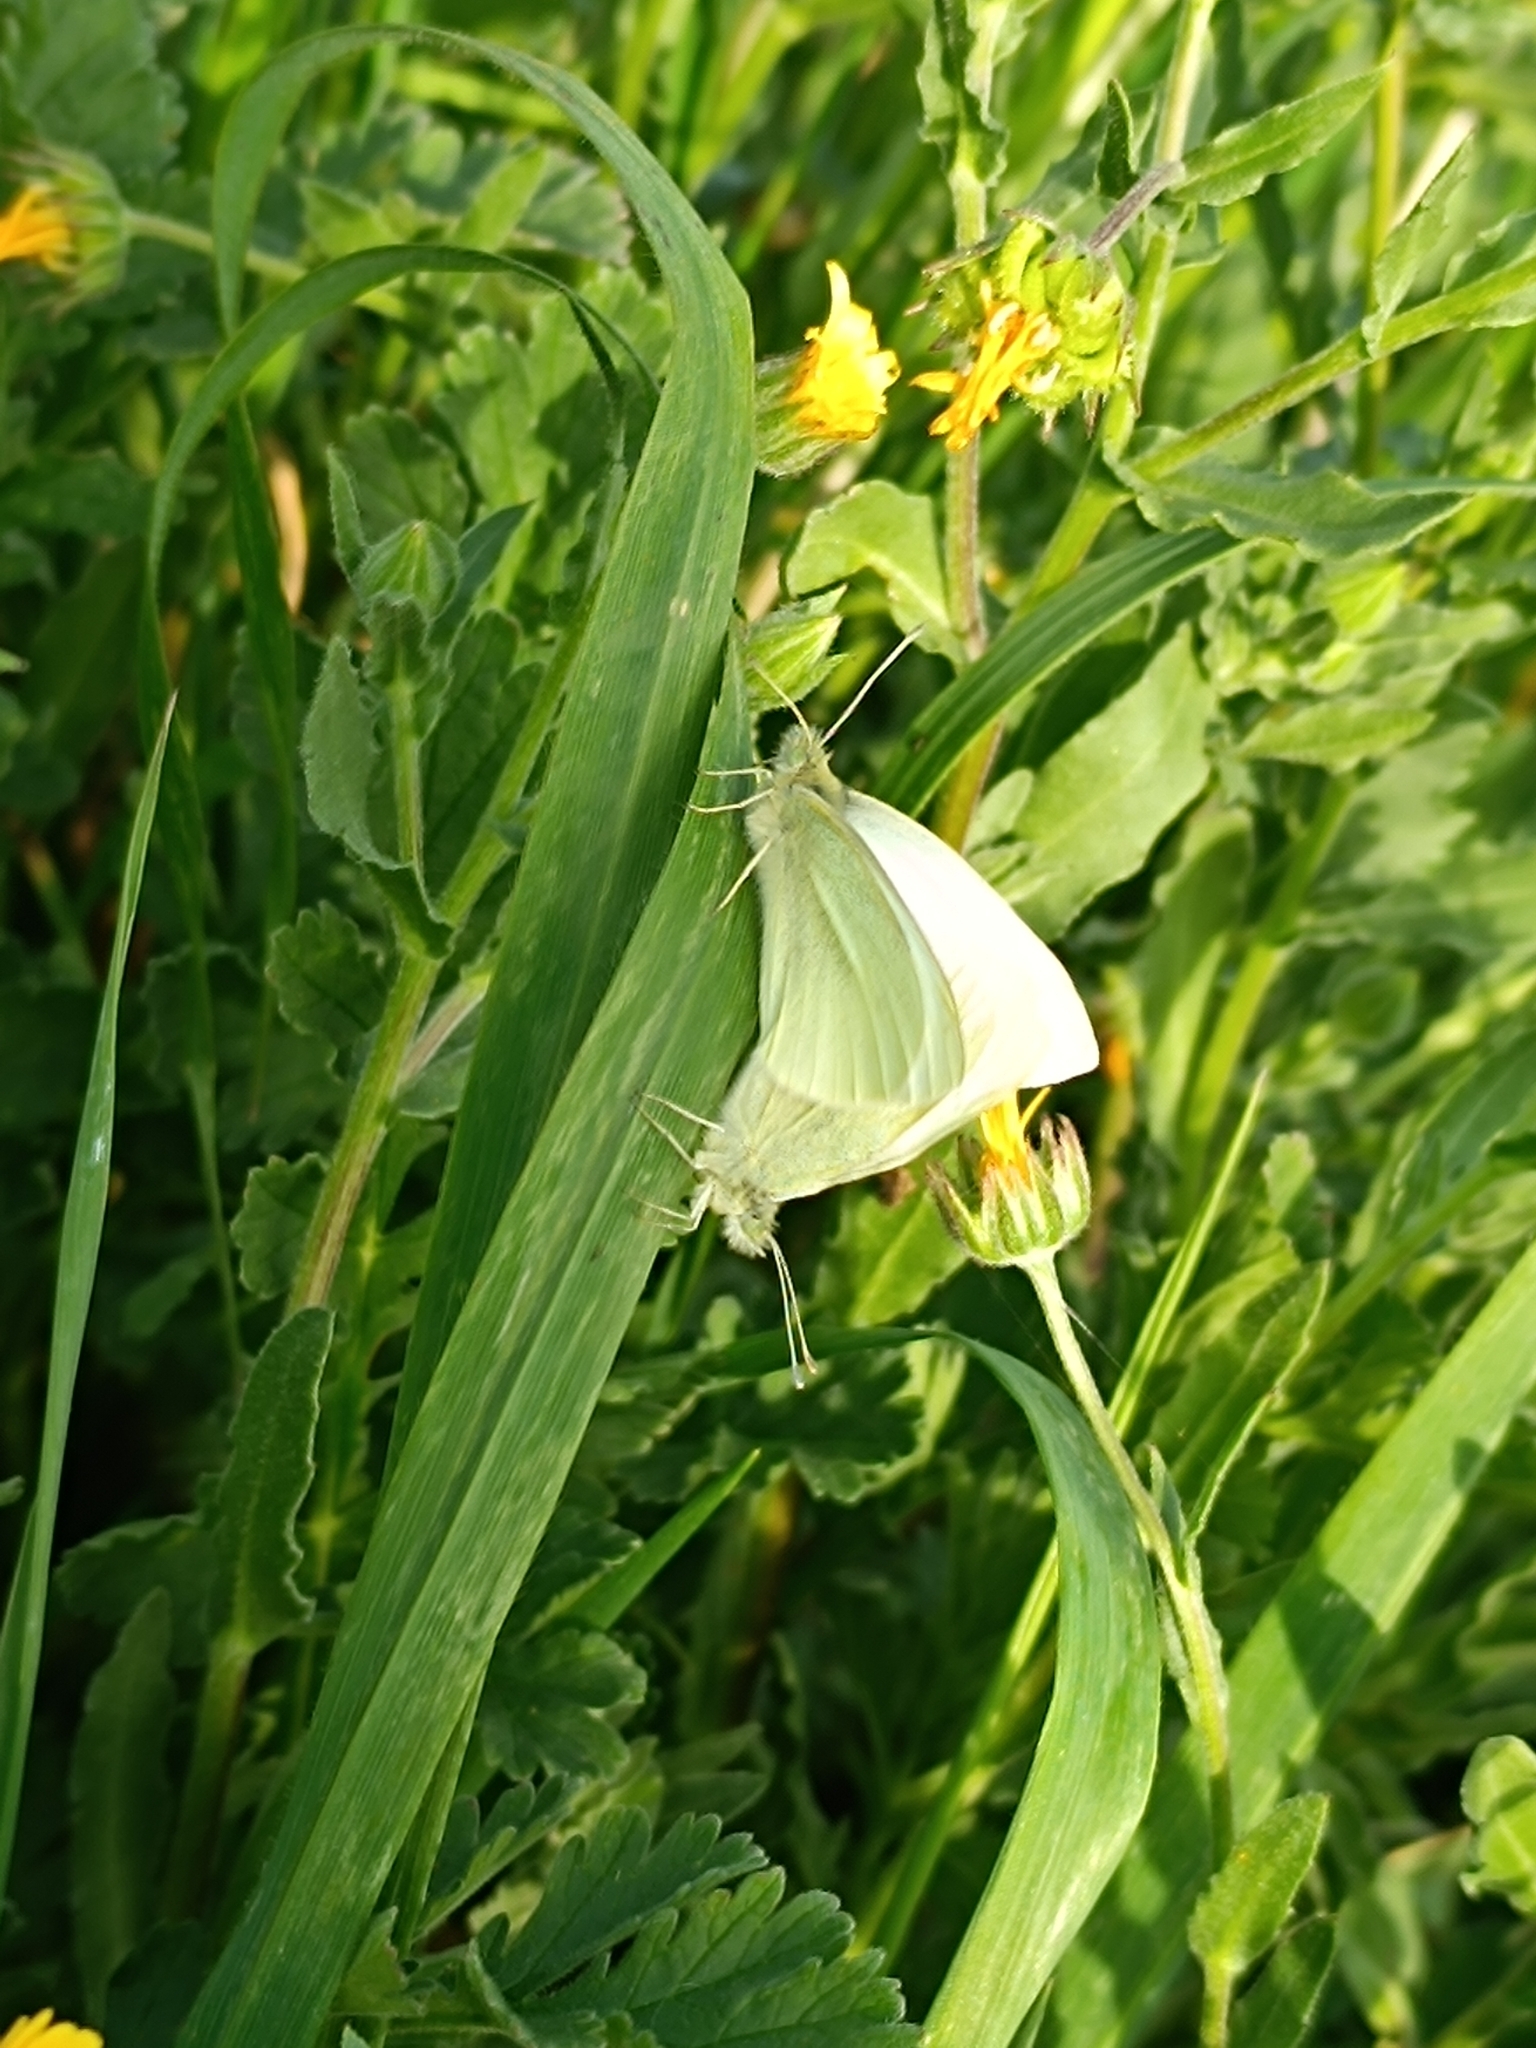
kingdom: Animalia
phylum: Arthropoda
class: Insecta
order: Lepidoptera
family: Pieridae
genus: Pieris
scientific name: Pieris rapae
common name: Small white
